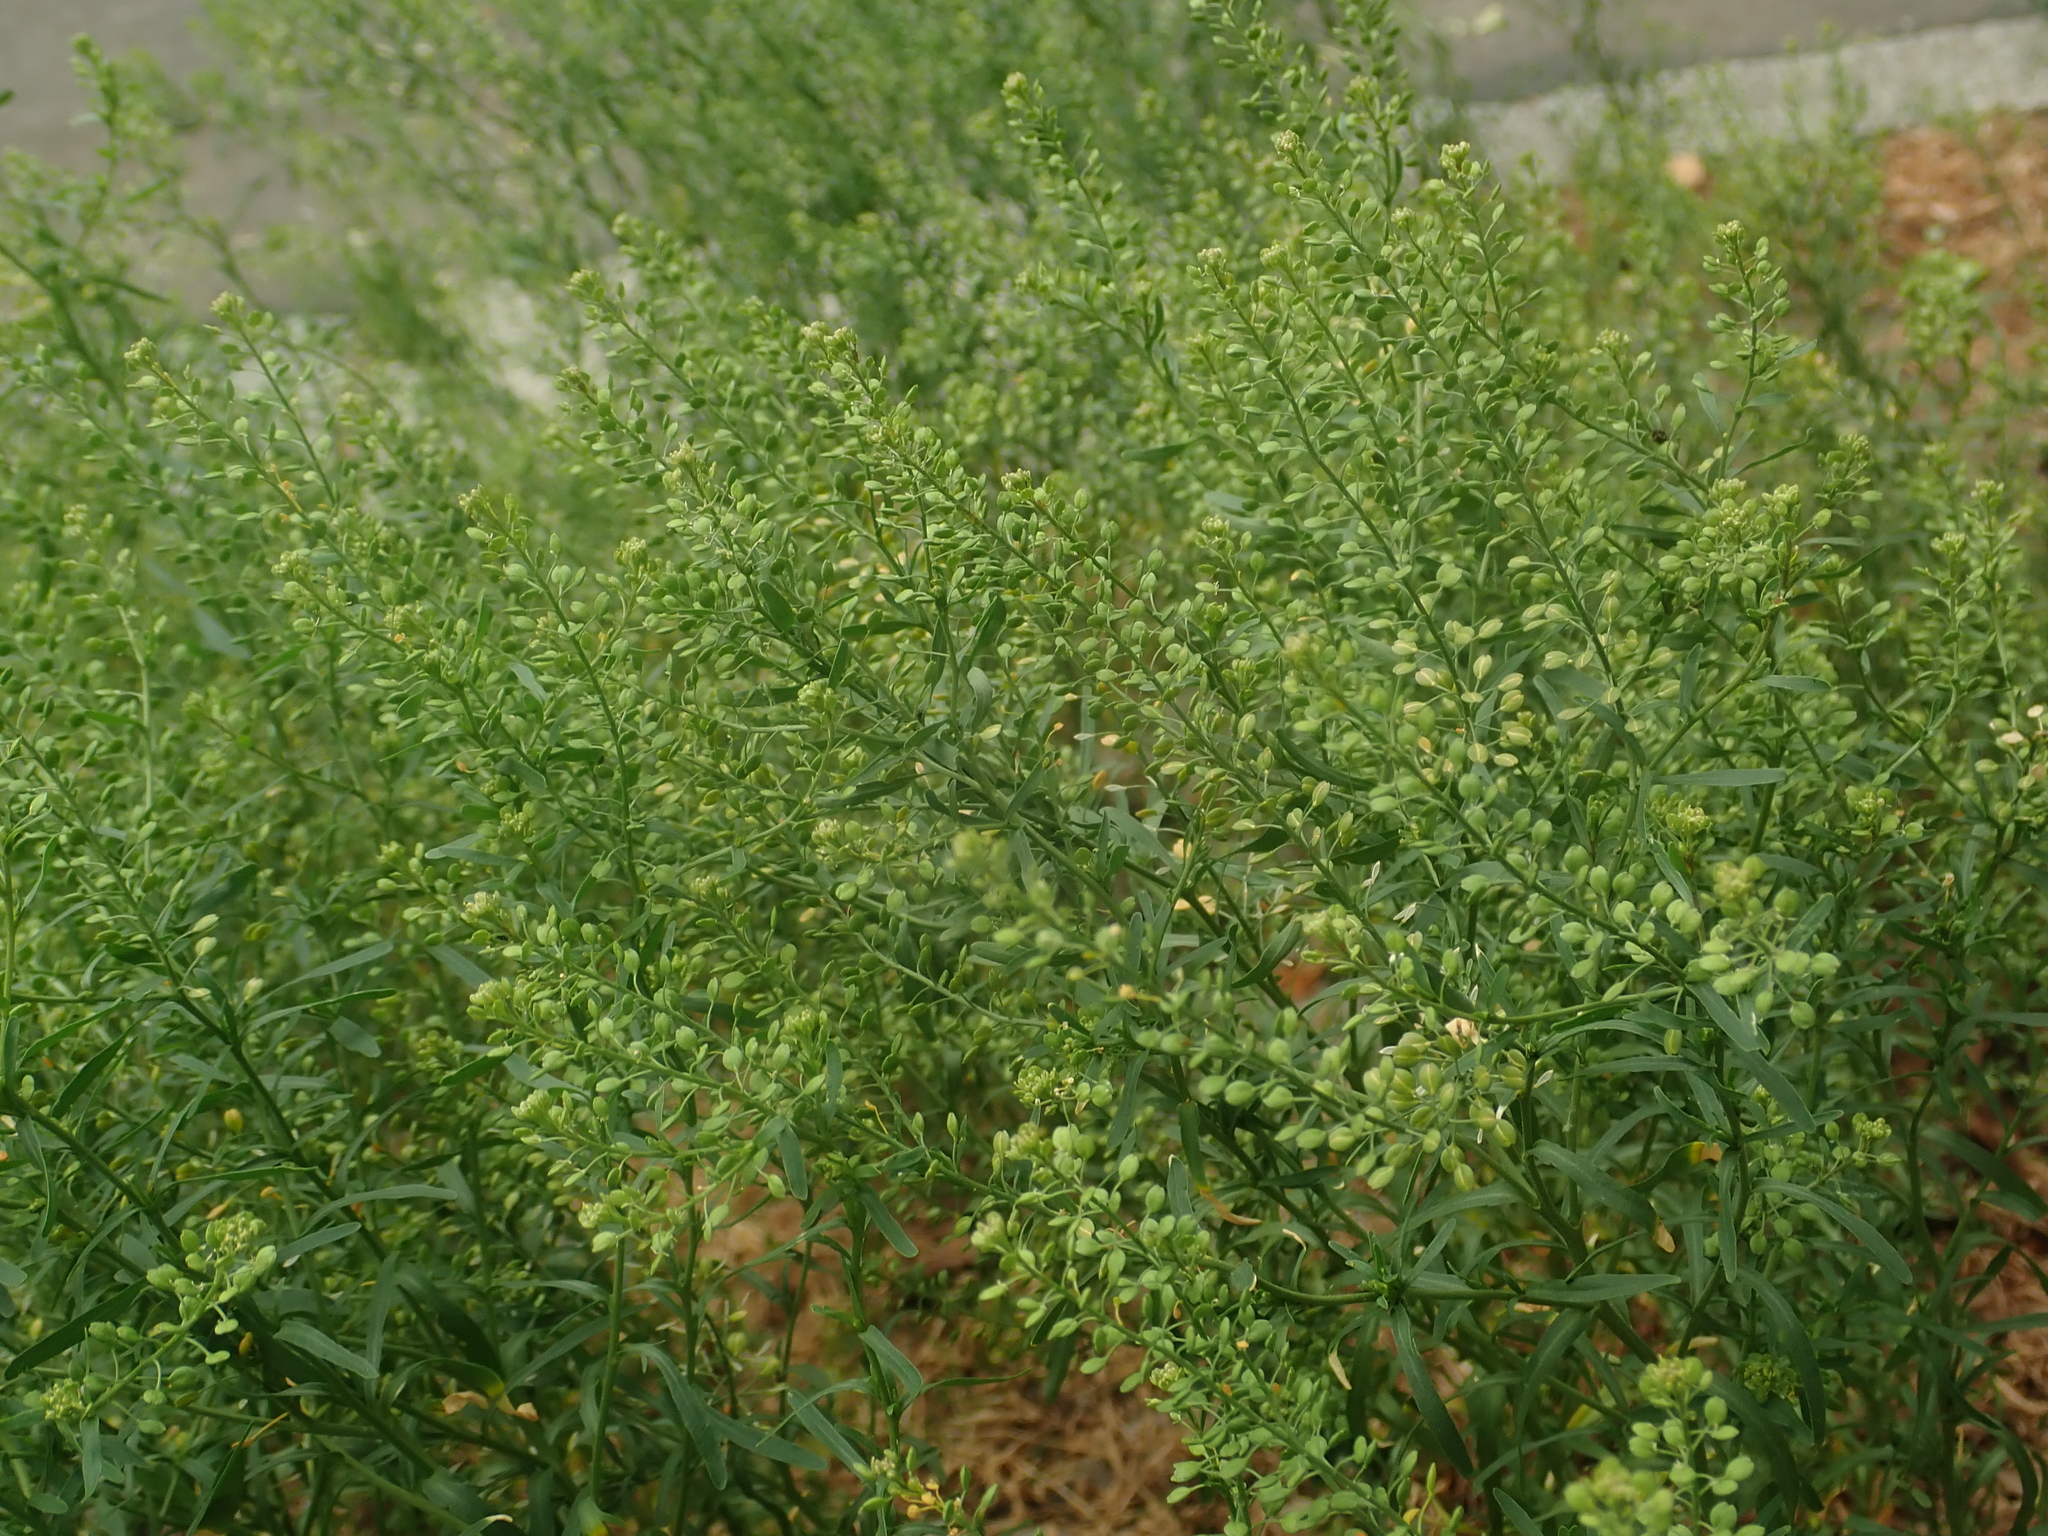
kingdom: Plantae
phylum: Tracheophyta
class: Magnoliopsida
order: Brassicales
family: Brassicaceae
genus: Lepidium
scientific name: Lepidium ruderale
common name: Narrow-leaved pepperwort
